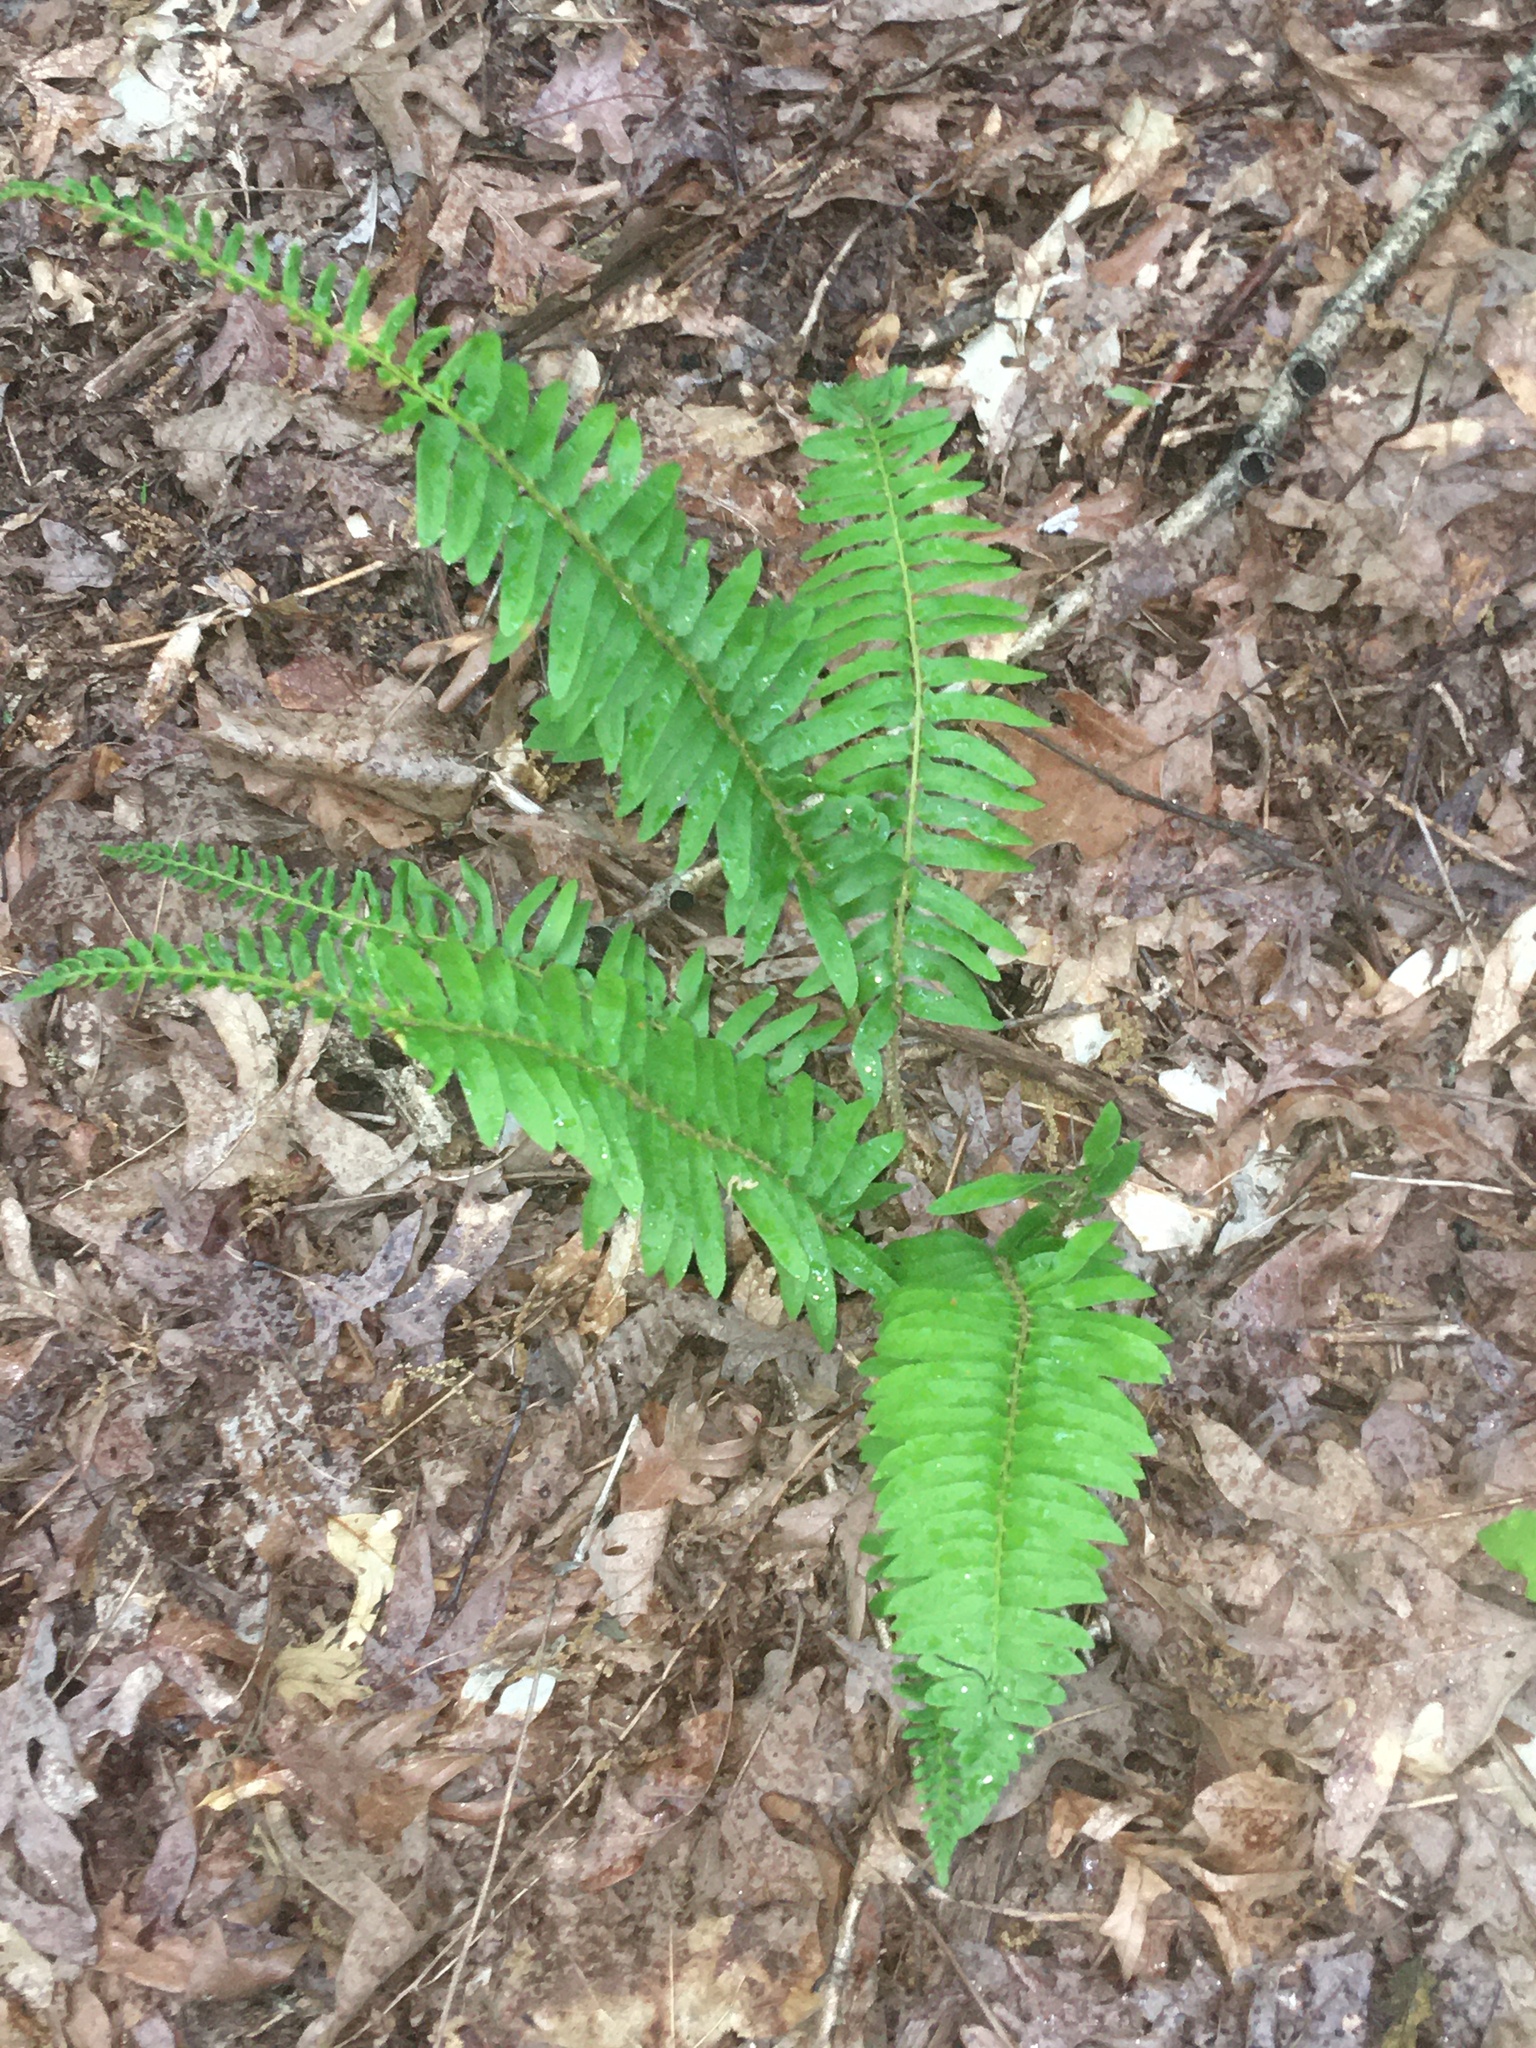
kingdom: Plantae
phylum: Tracheophyta
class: Polypodiopsida
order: Polypodiales
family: Dryopteridaceae
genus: Polystichum
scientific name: Polystichum acrostichoides
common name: Christmas fern
